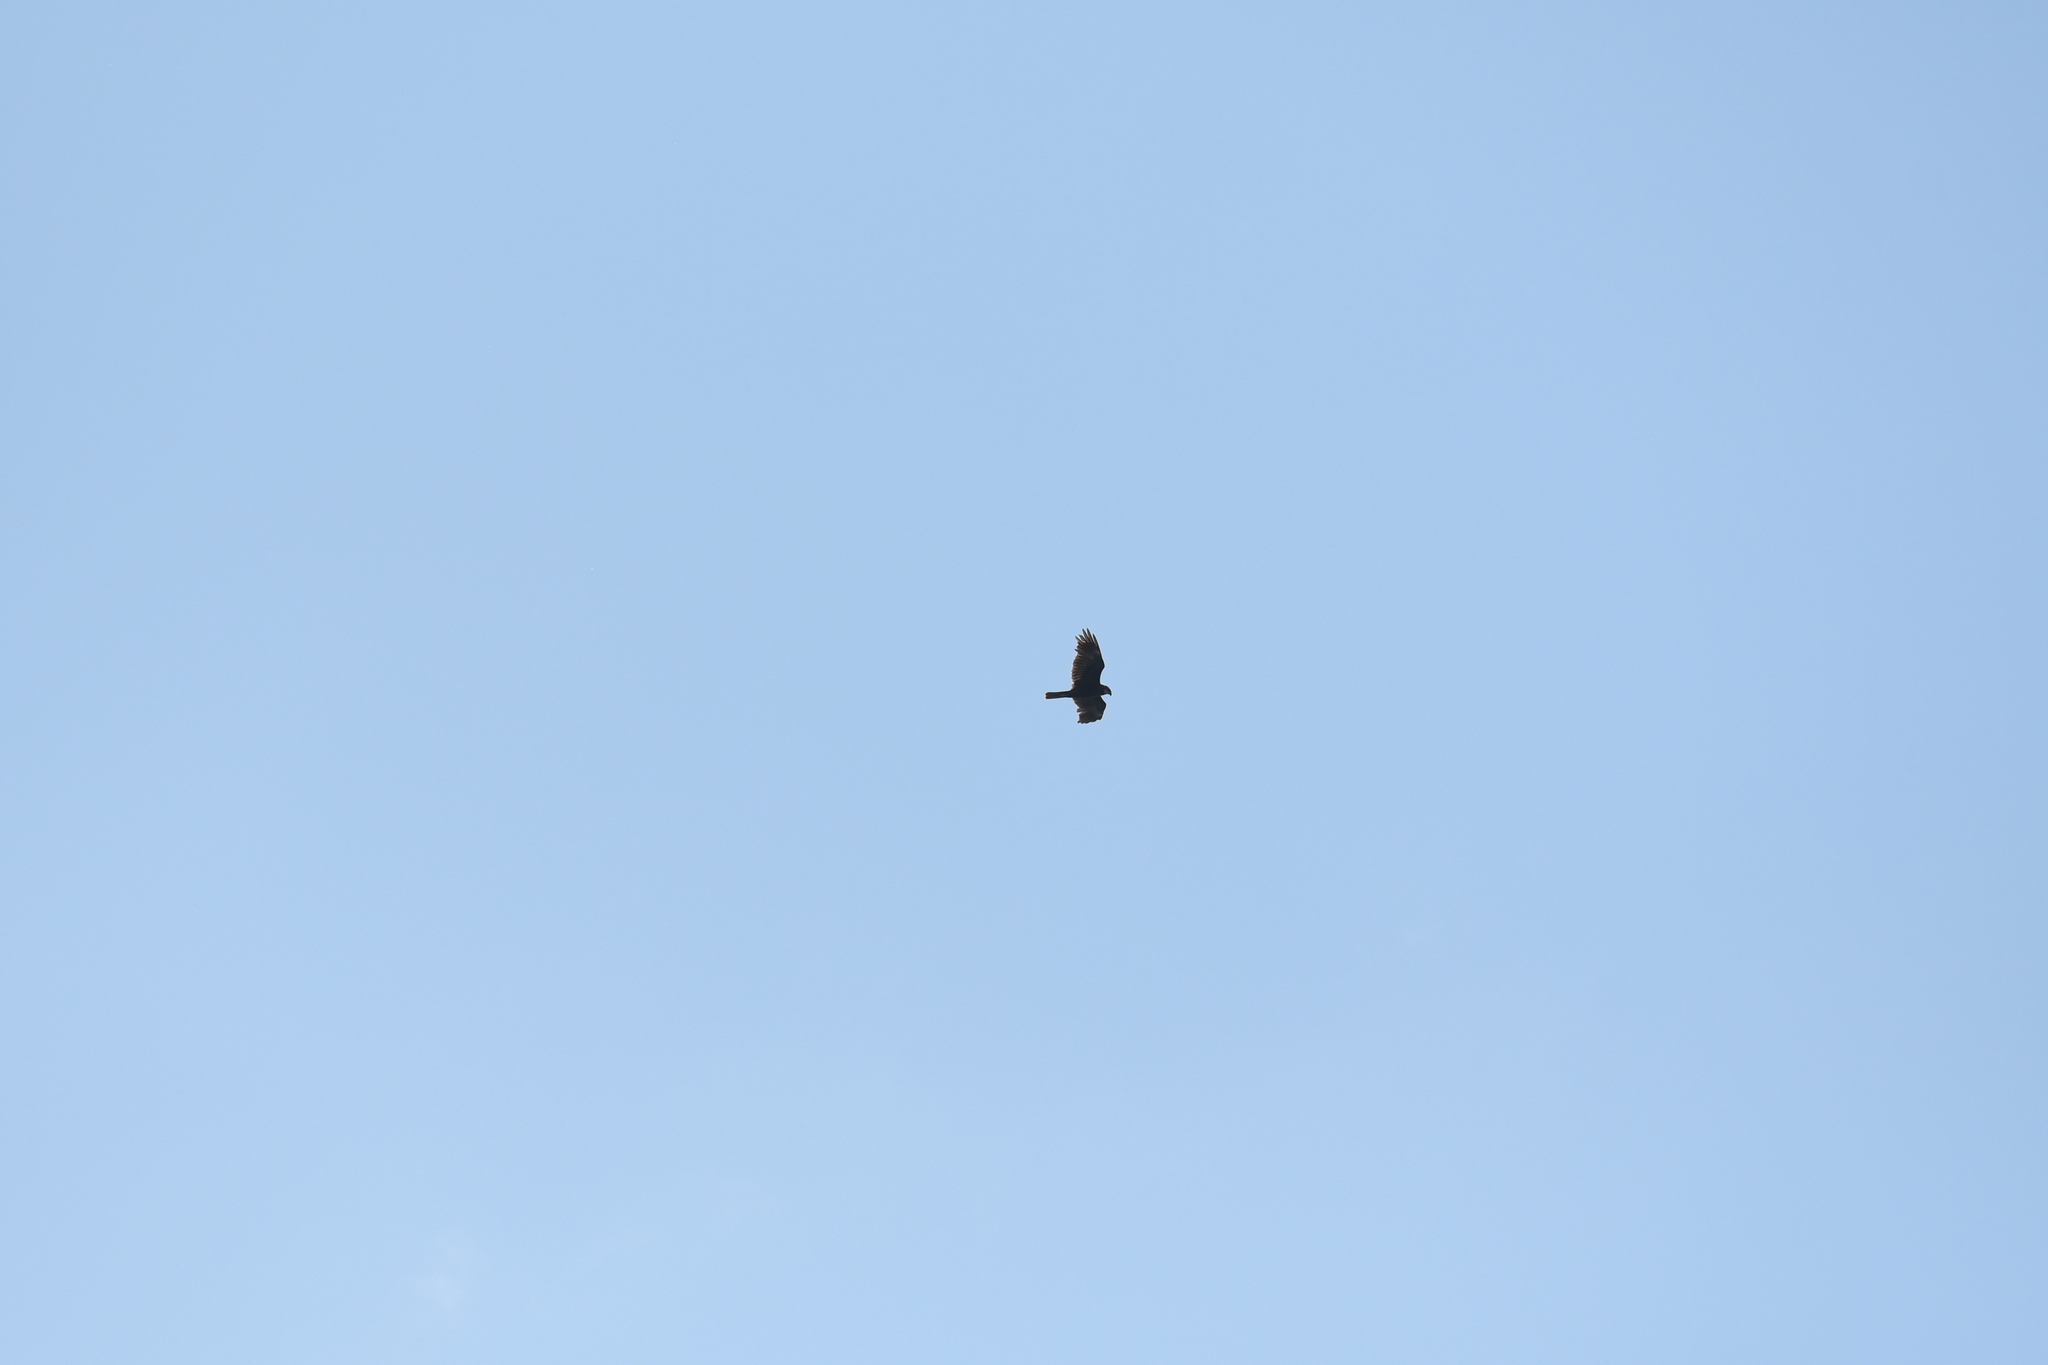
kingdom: Animalia
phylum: Chordata
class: Aves
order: Accipitriformes
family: Accipitridae
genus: Circus
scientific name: Circus aeruginosus
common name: Western marsh harrier
